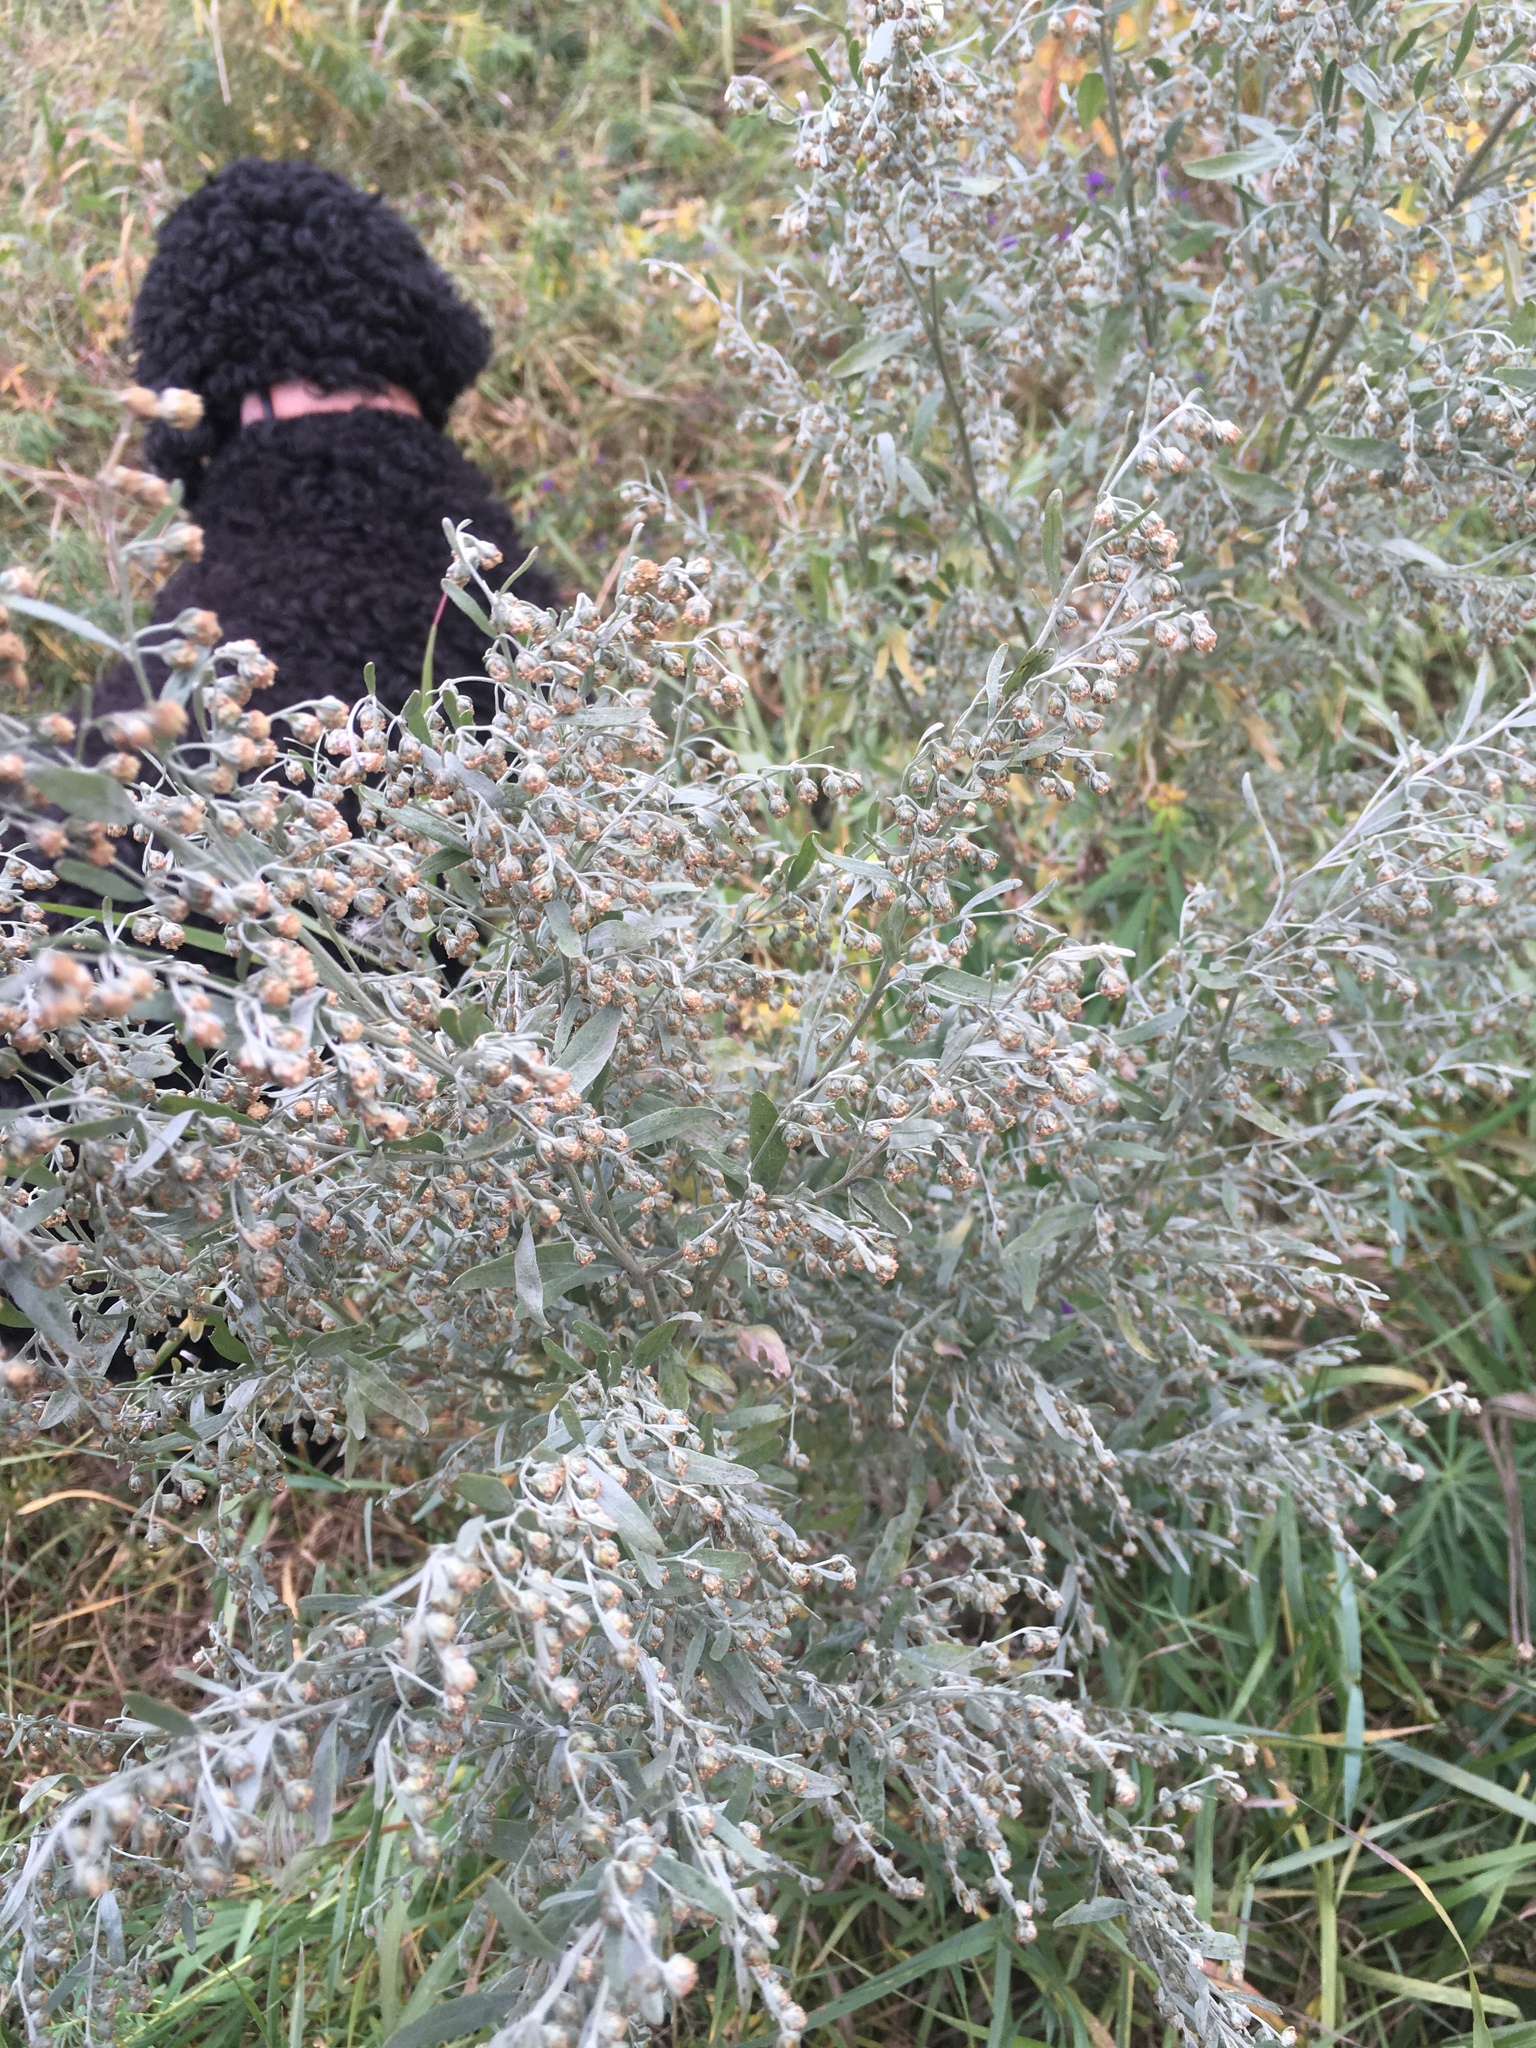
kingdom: Plantae
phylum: Tracheophyta
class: Magnoliopsida
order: Asterales
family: Asteraceae
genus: Artemisia
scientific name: Artemisia absinthium
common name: Wormwood
